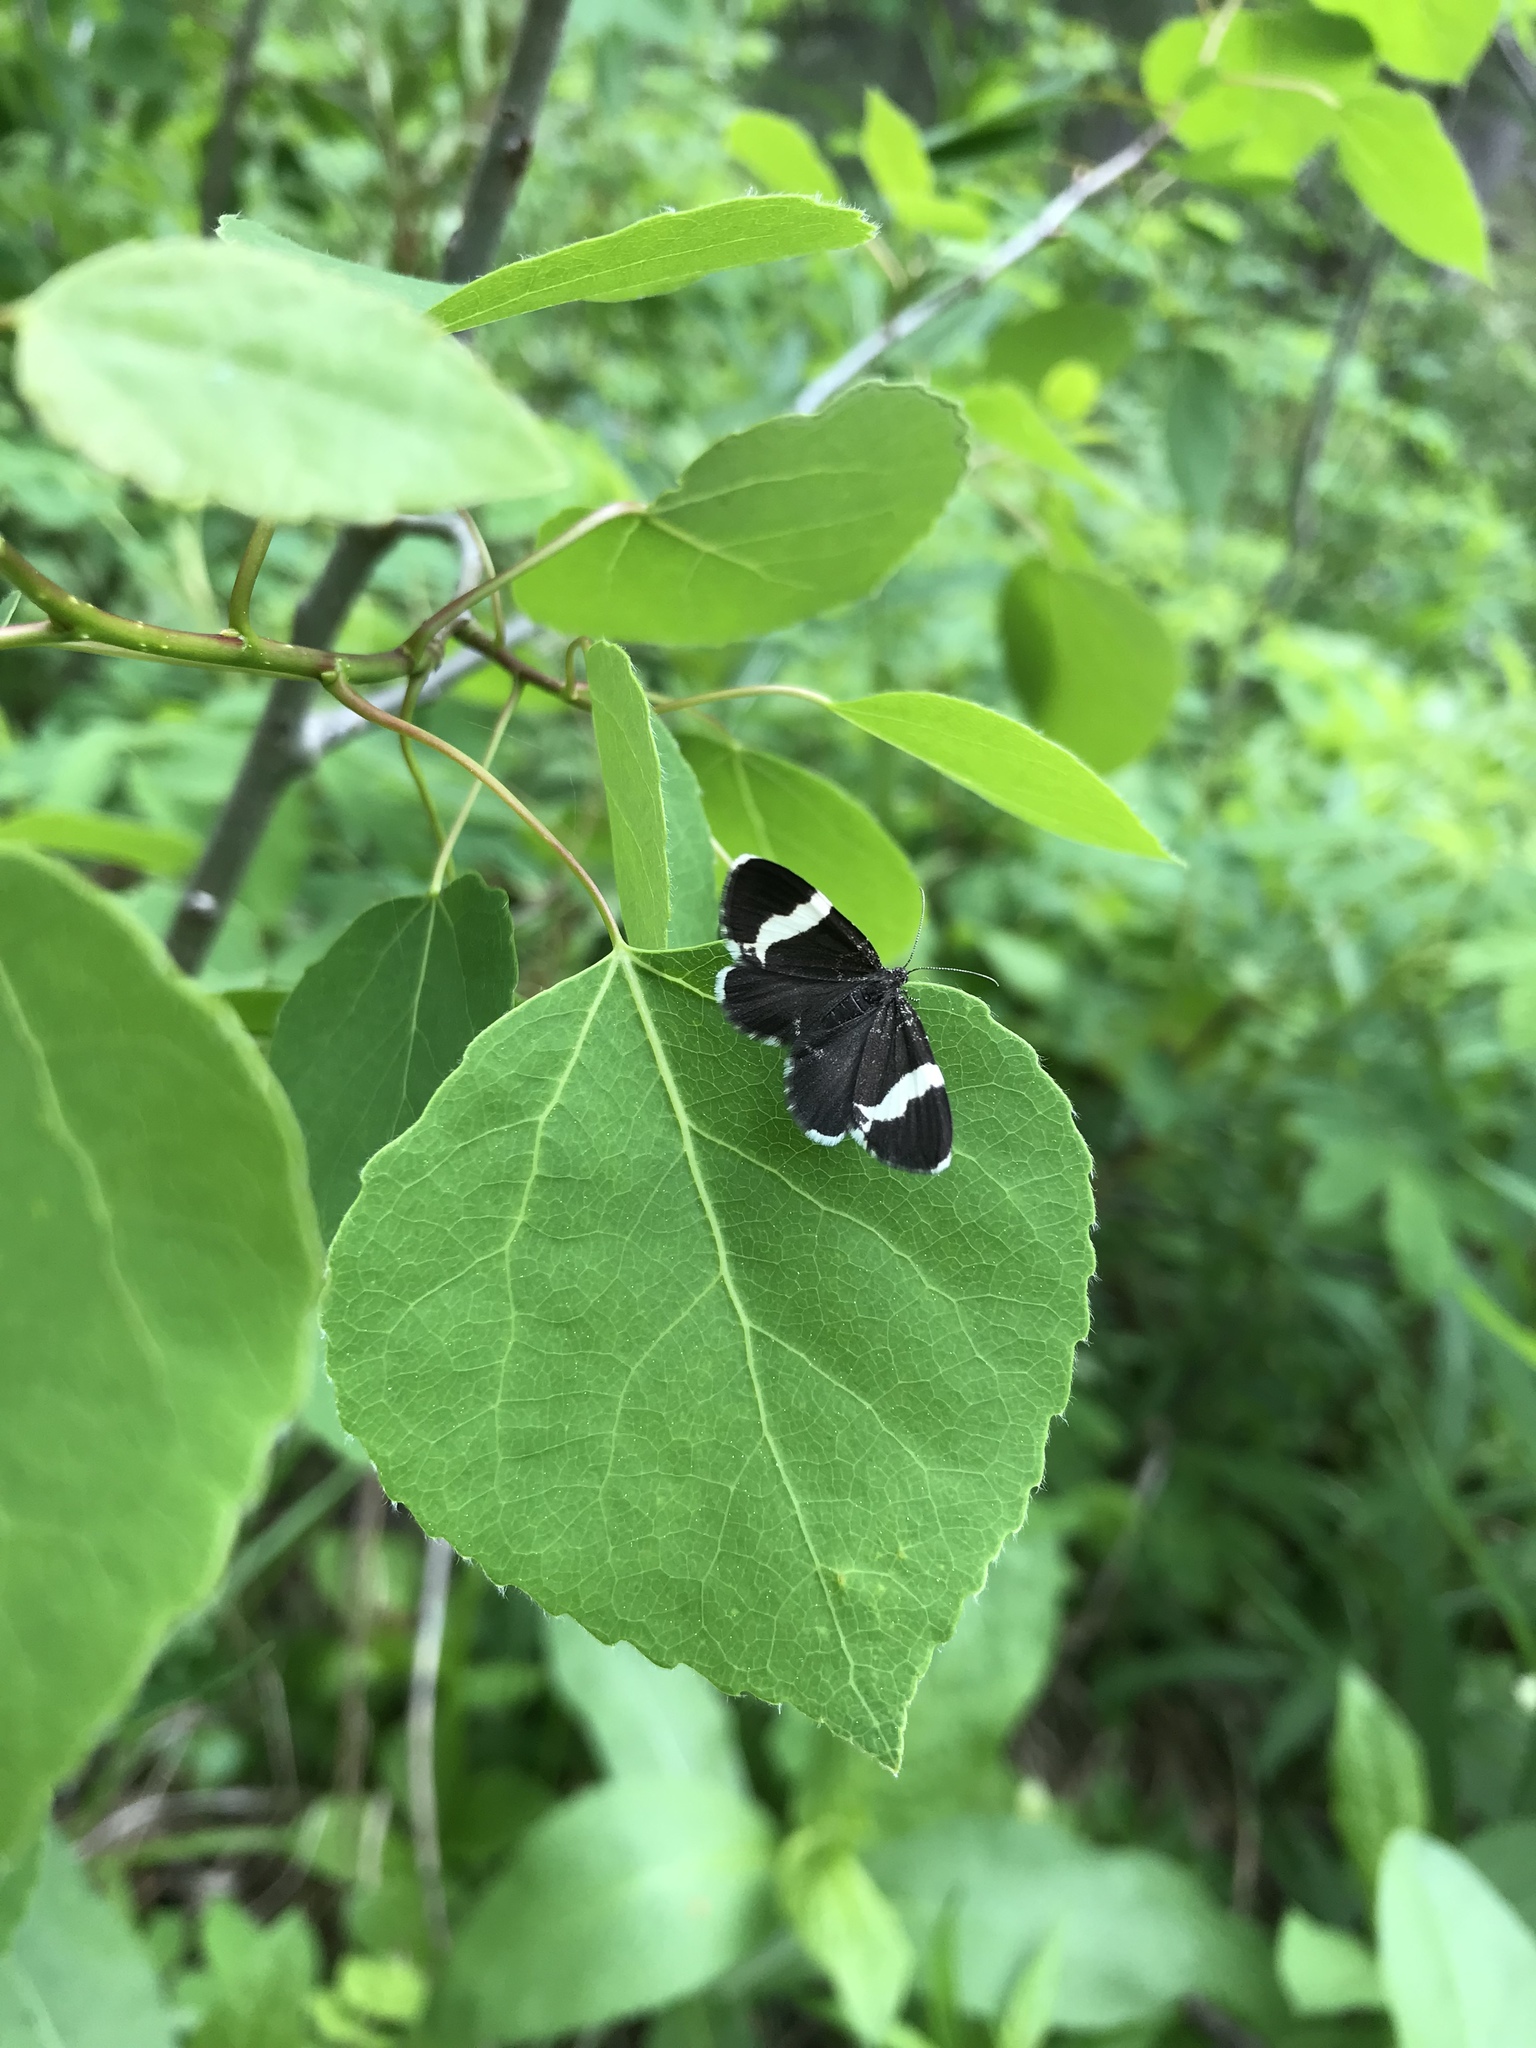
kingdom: Animalia
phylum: Arthropoda
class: Insecta
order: Lepidoptera
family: Geometridae
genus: Trichodezia
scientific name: Trichodezia albovittata
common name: White striped black
